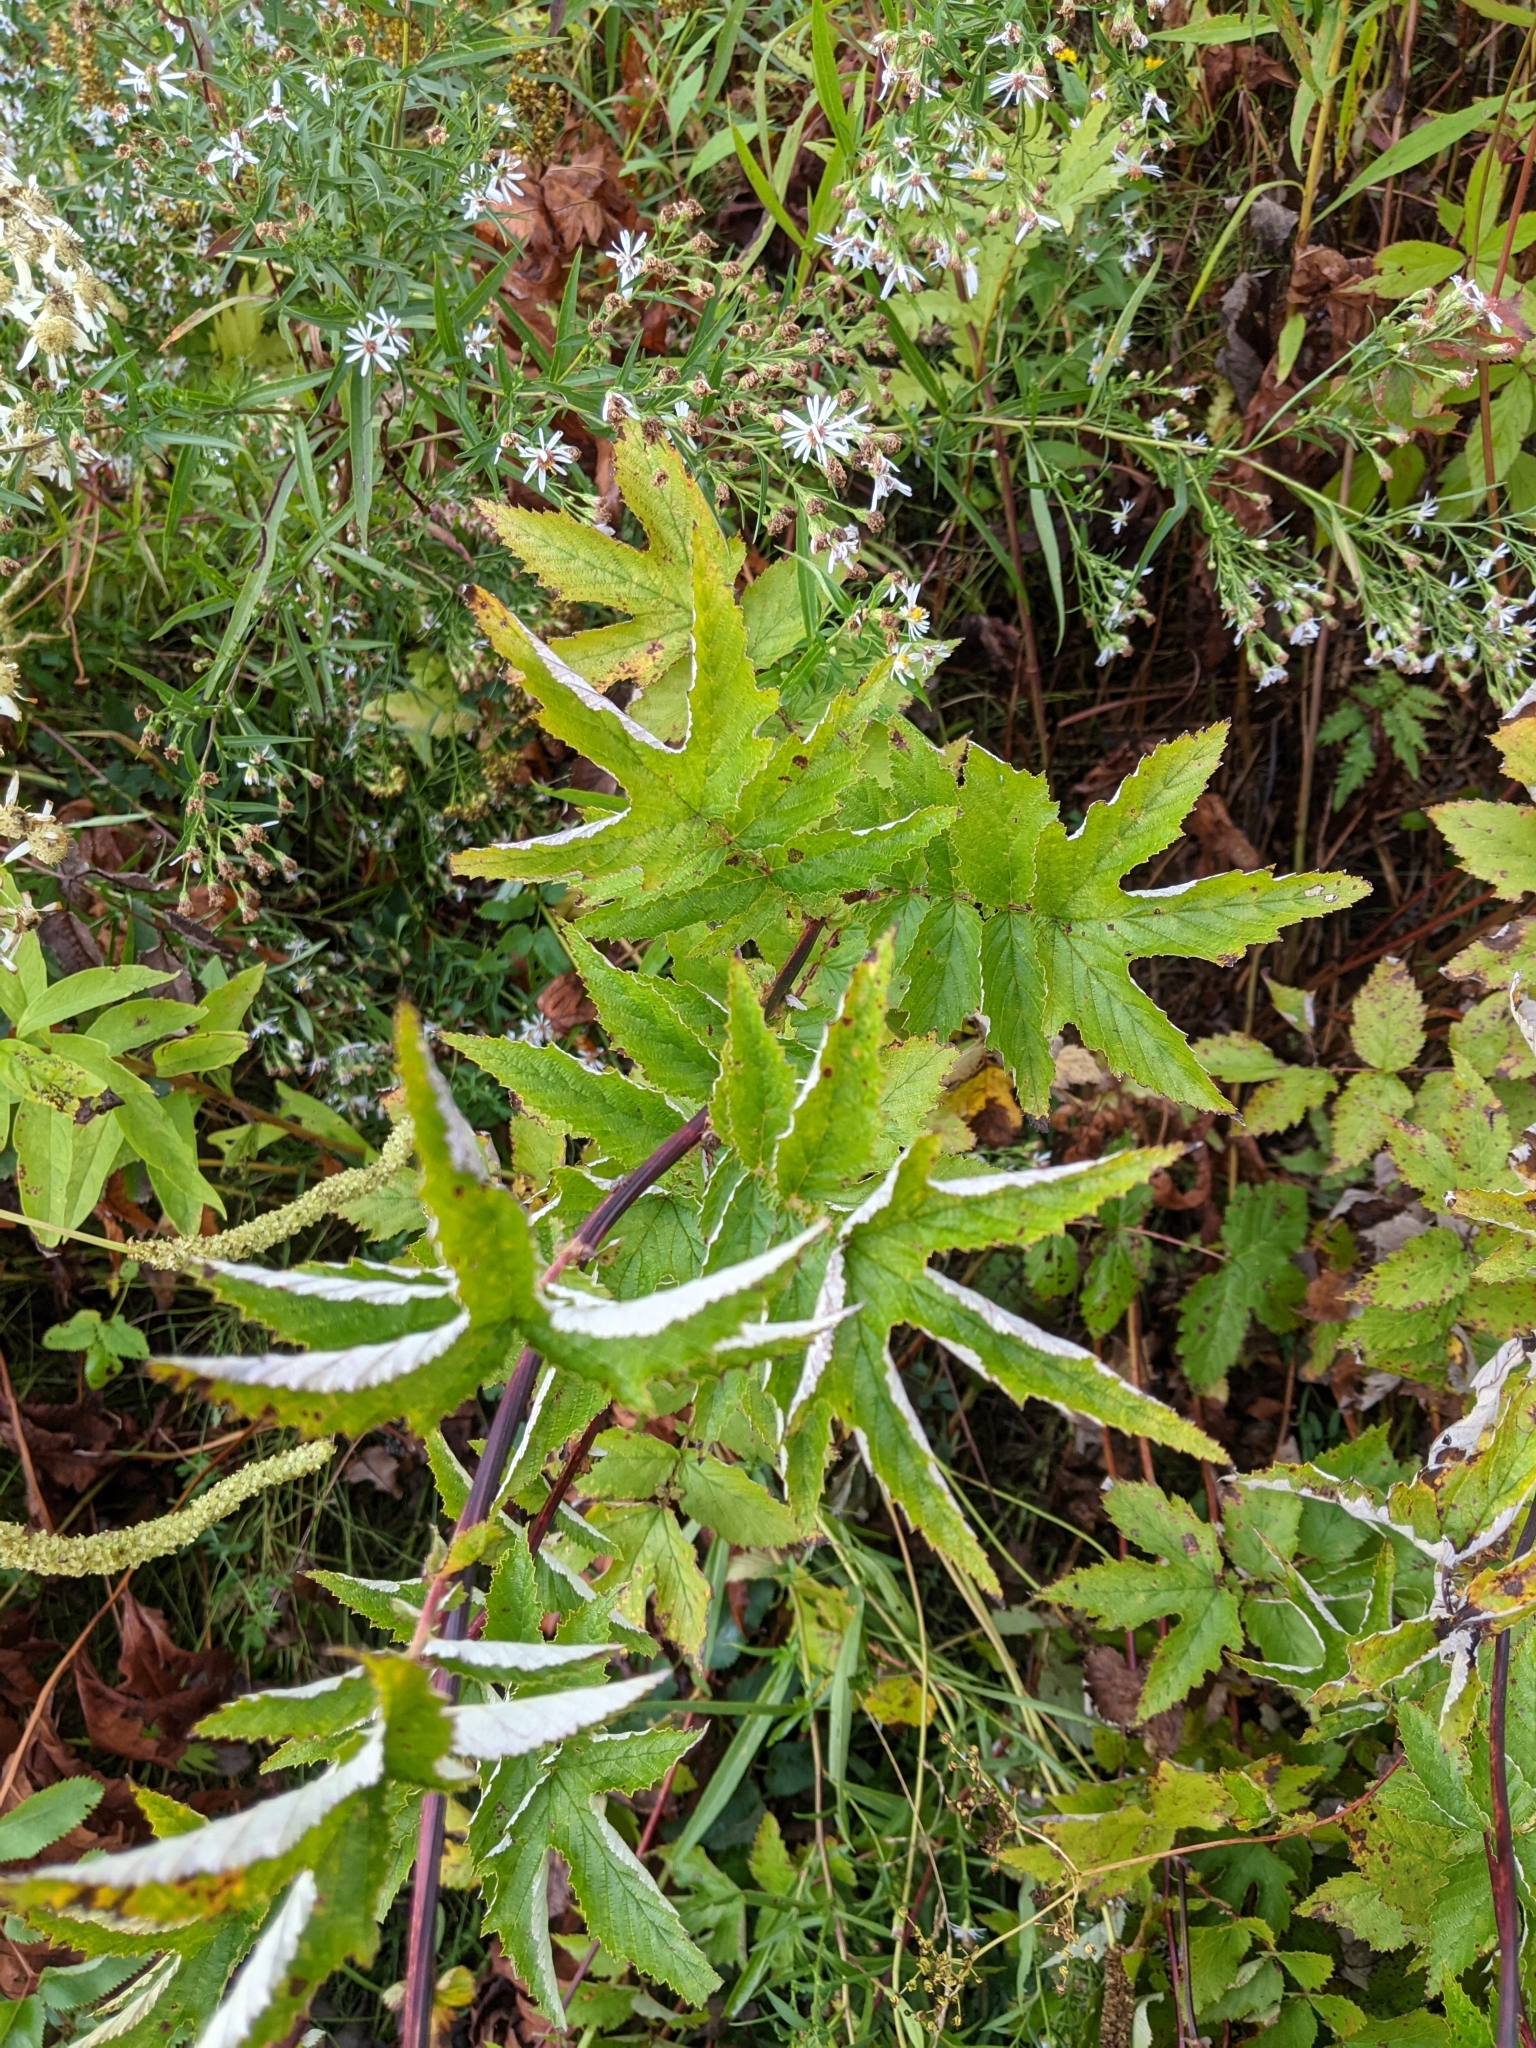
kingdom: Plantae
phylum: Tracheophyta
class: Magnoliopsida
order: Rosales
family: Rosaceae
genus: Filipendula
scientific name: Filipendula ulmaria
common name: Meadowsweet
